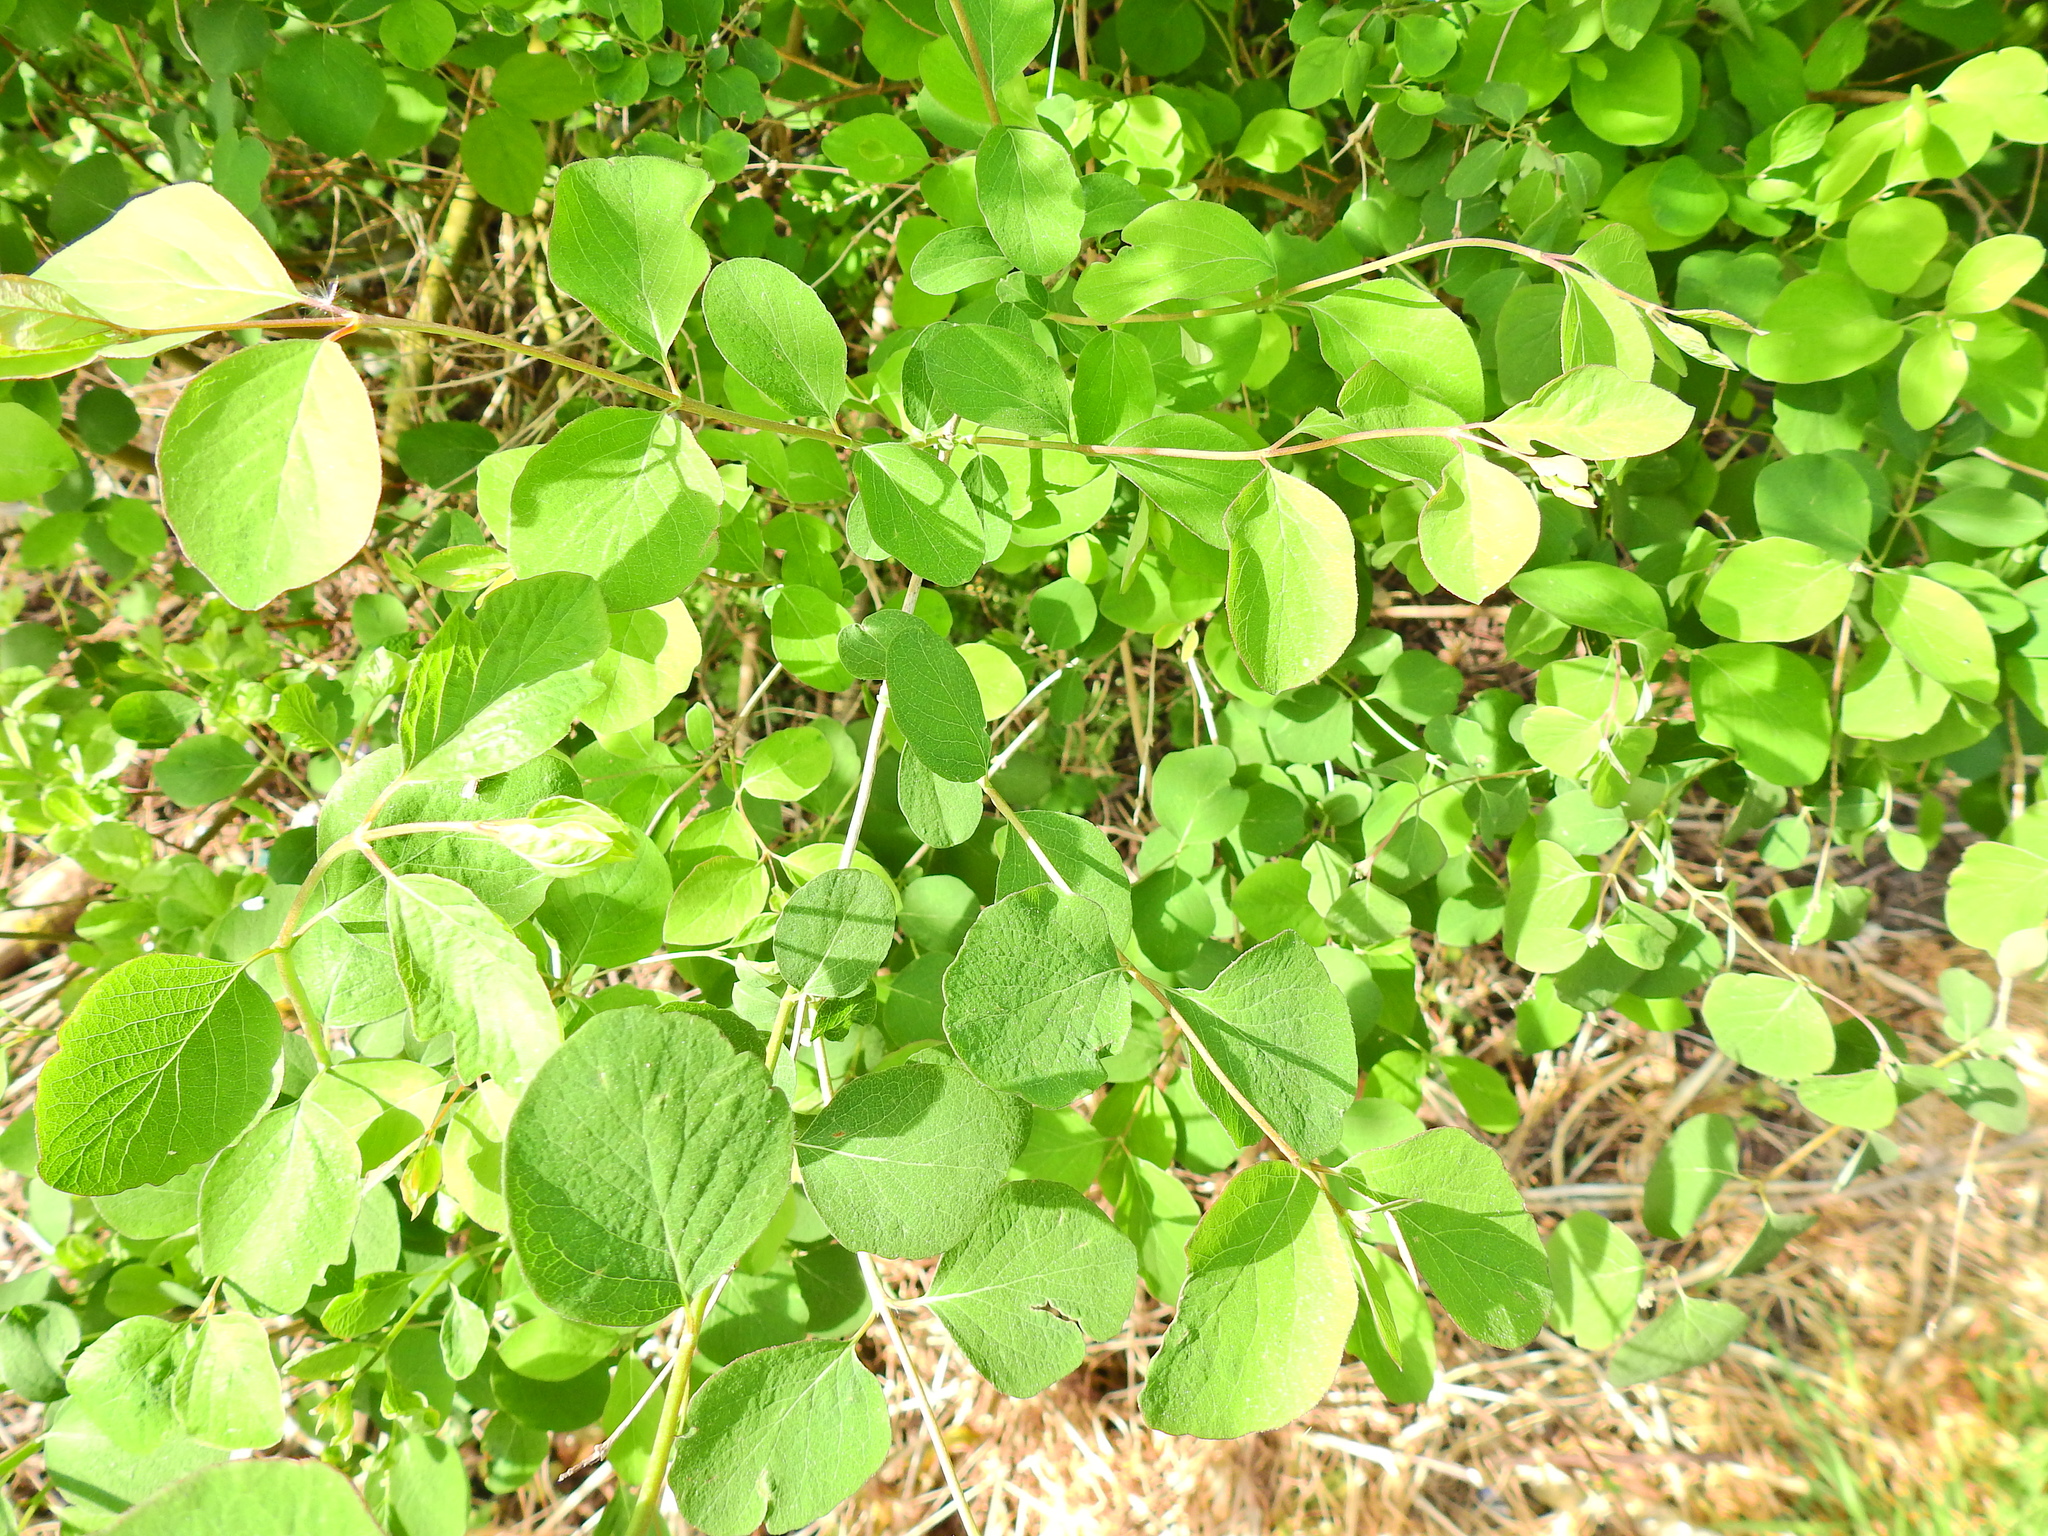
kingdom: Plantae
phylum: Tracheophyta
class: Magnoliopsida
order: Dipsacales
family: Caprifoliaceae
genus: Symphoricarpos
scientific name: Symphoricarpos albus
